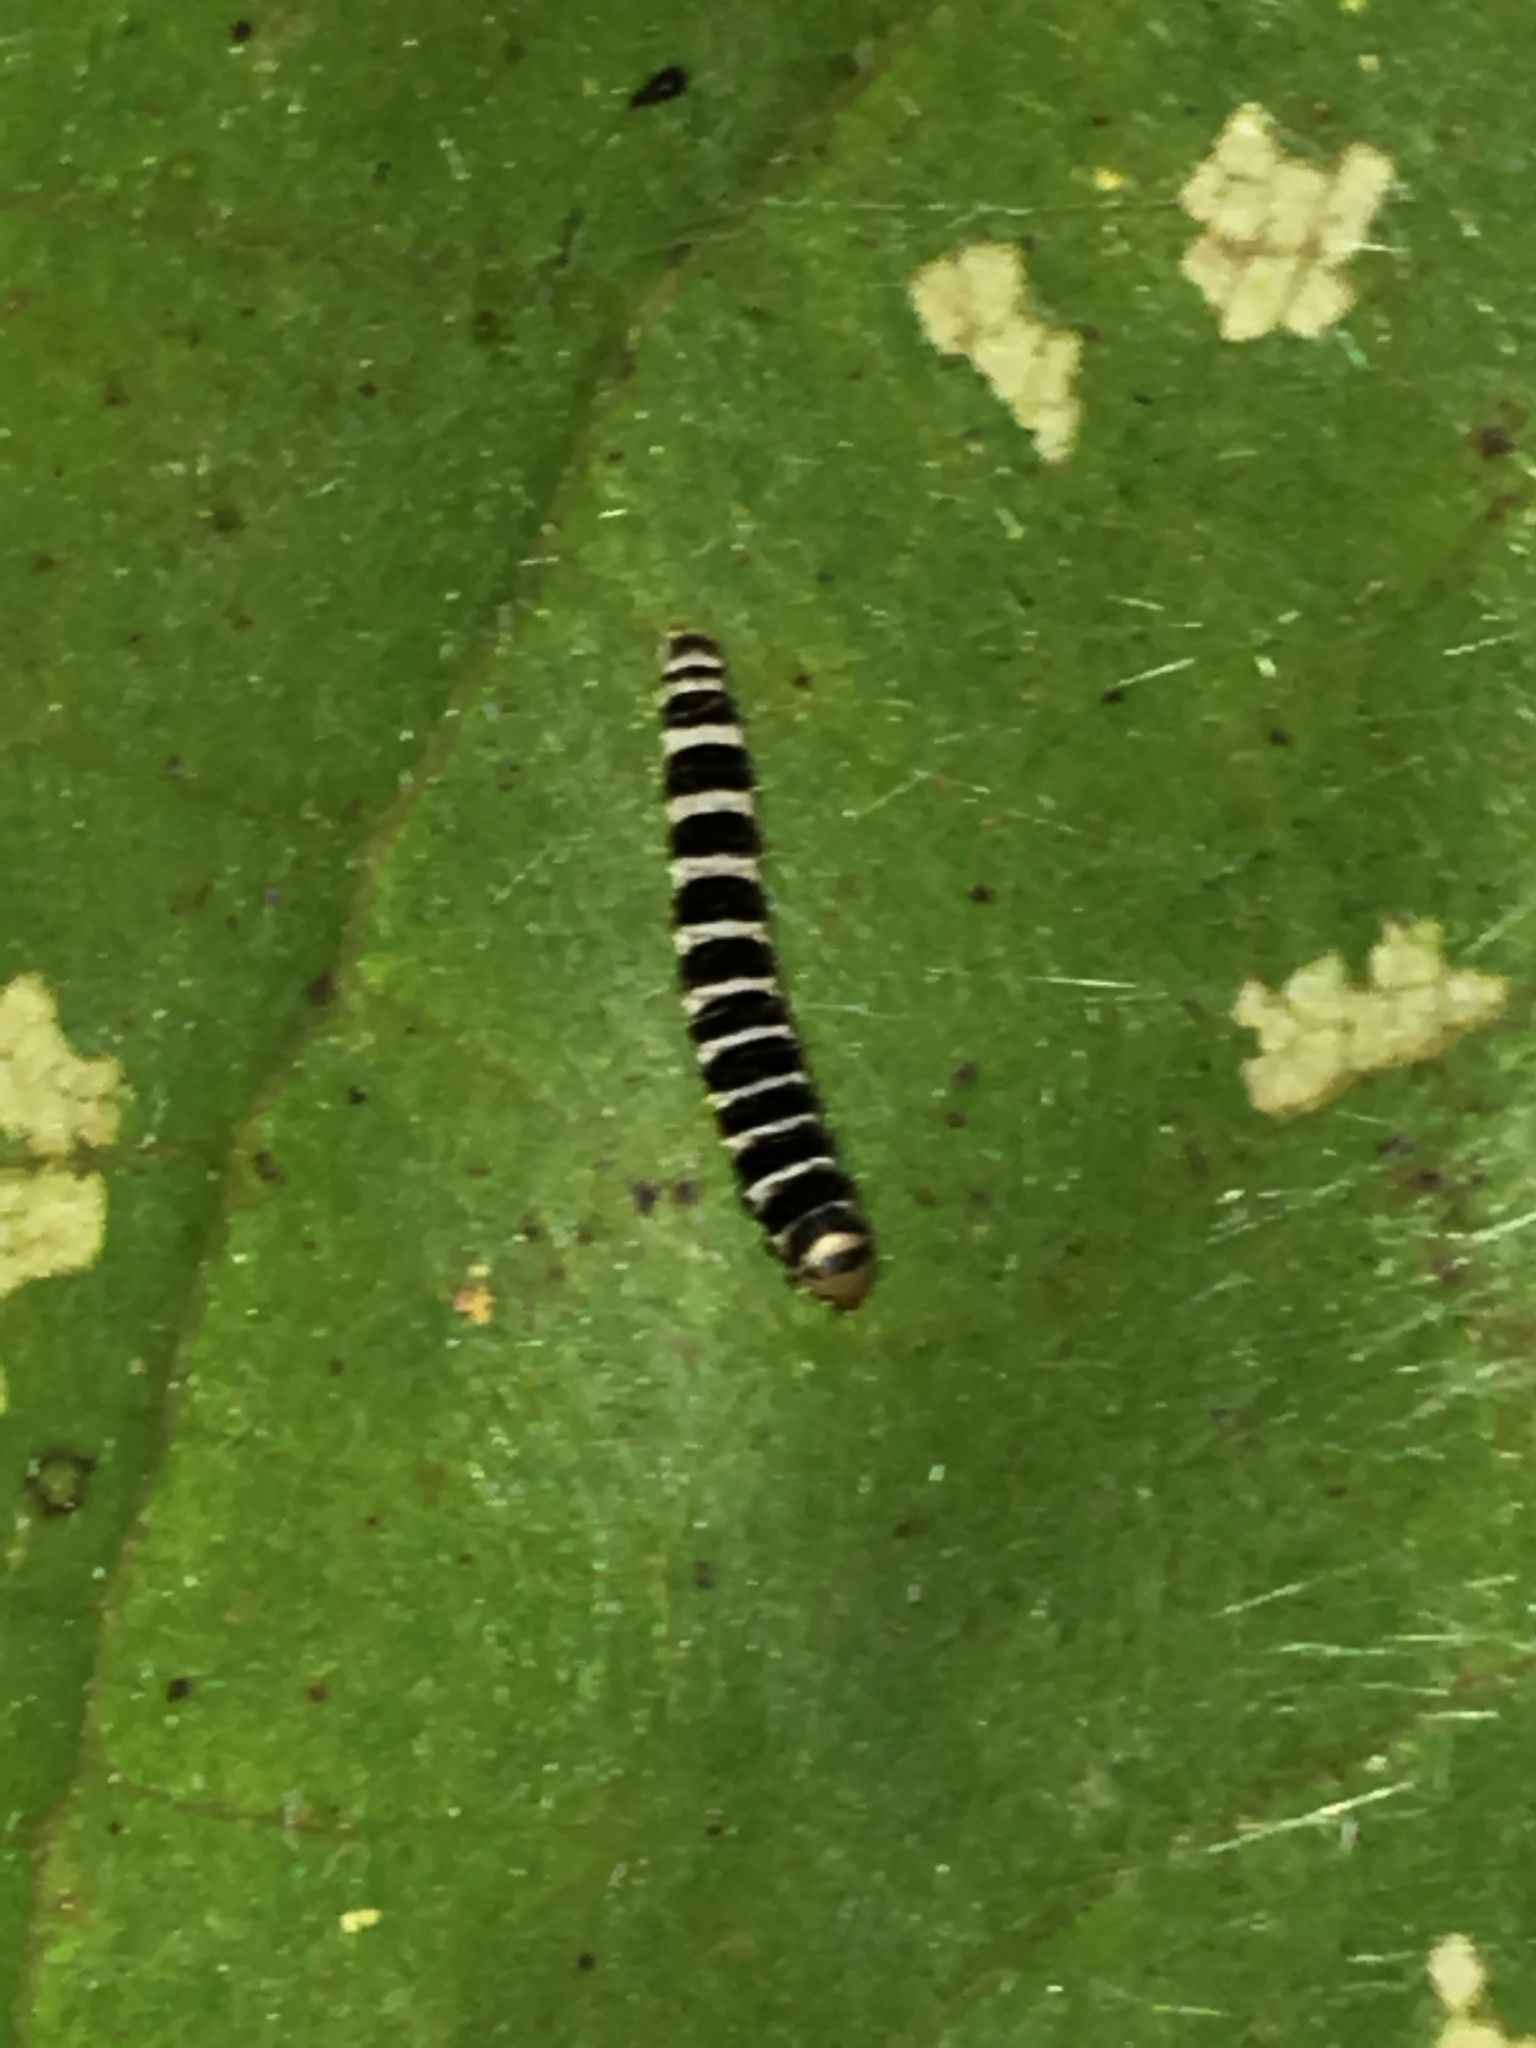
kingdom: Animalia
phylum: Arthropoda
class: Insecta
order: Lepidoptera
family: Gelechiidae
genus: Fascista
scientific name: Fascista cercerisella
